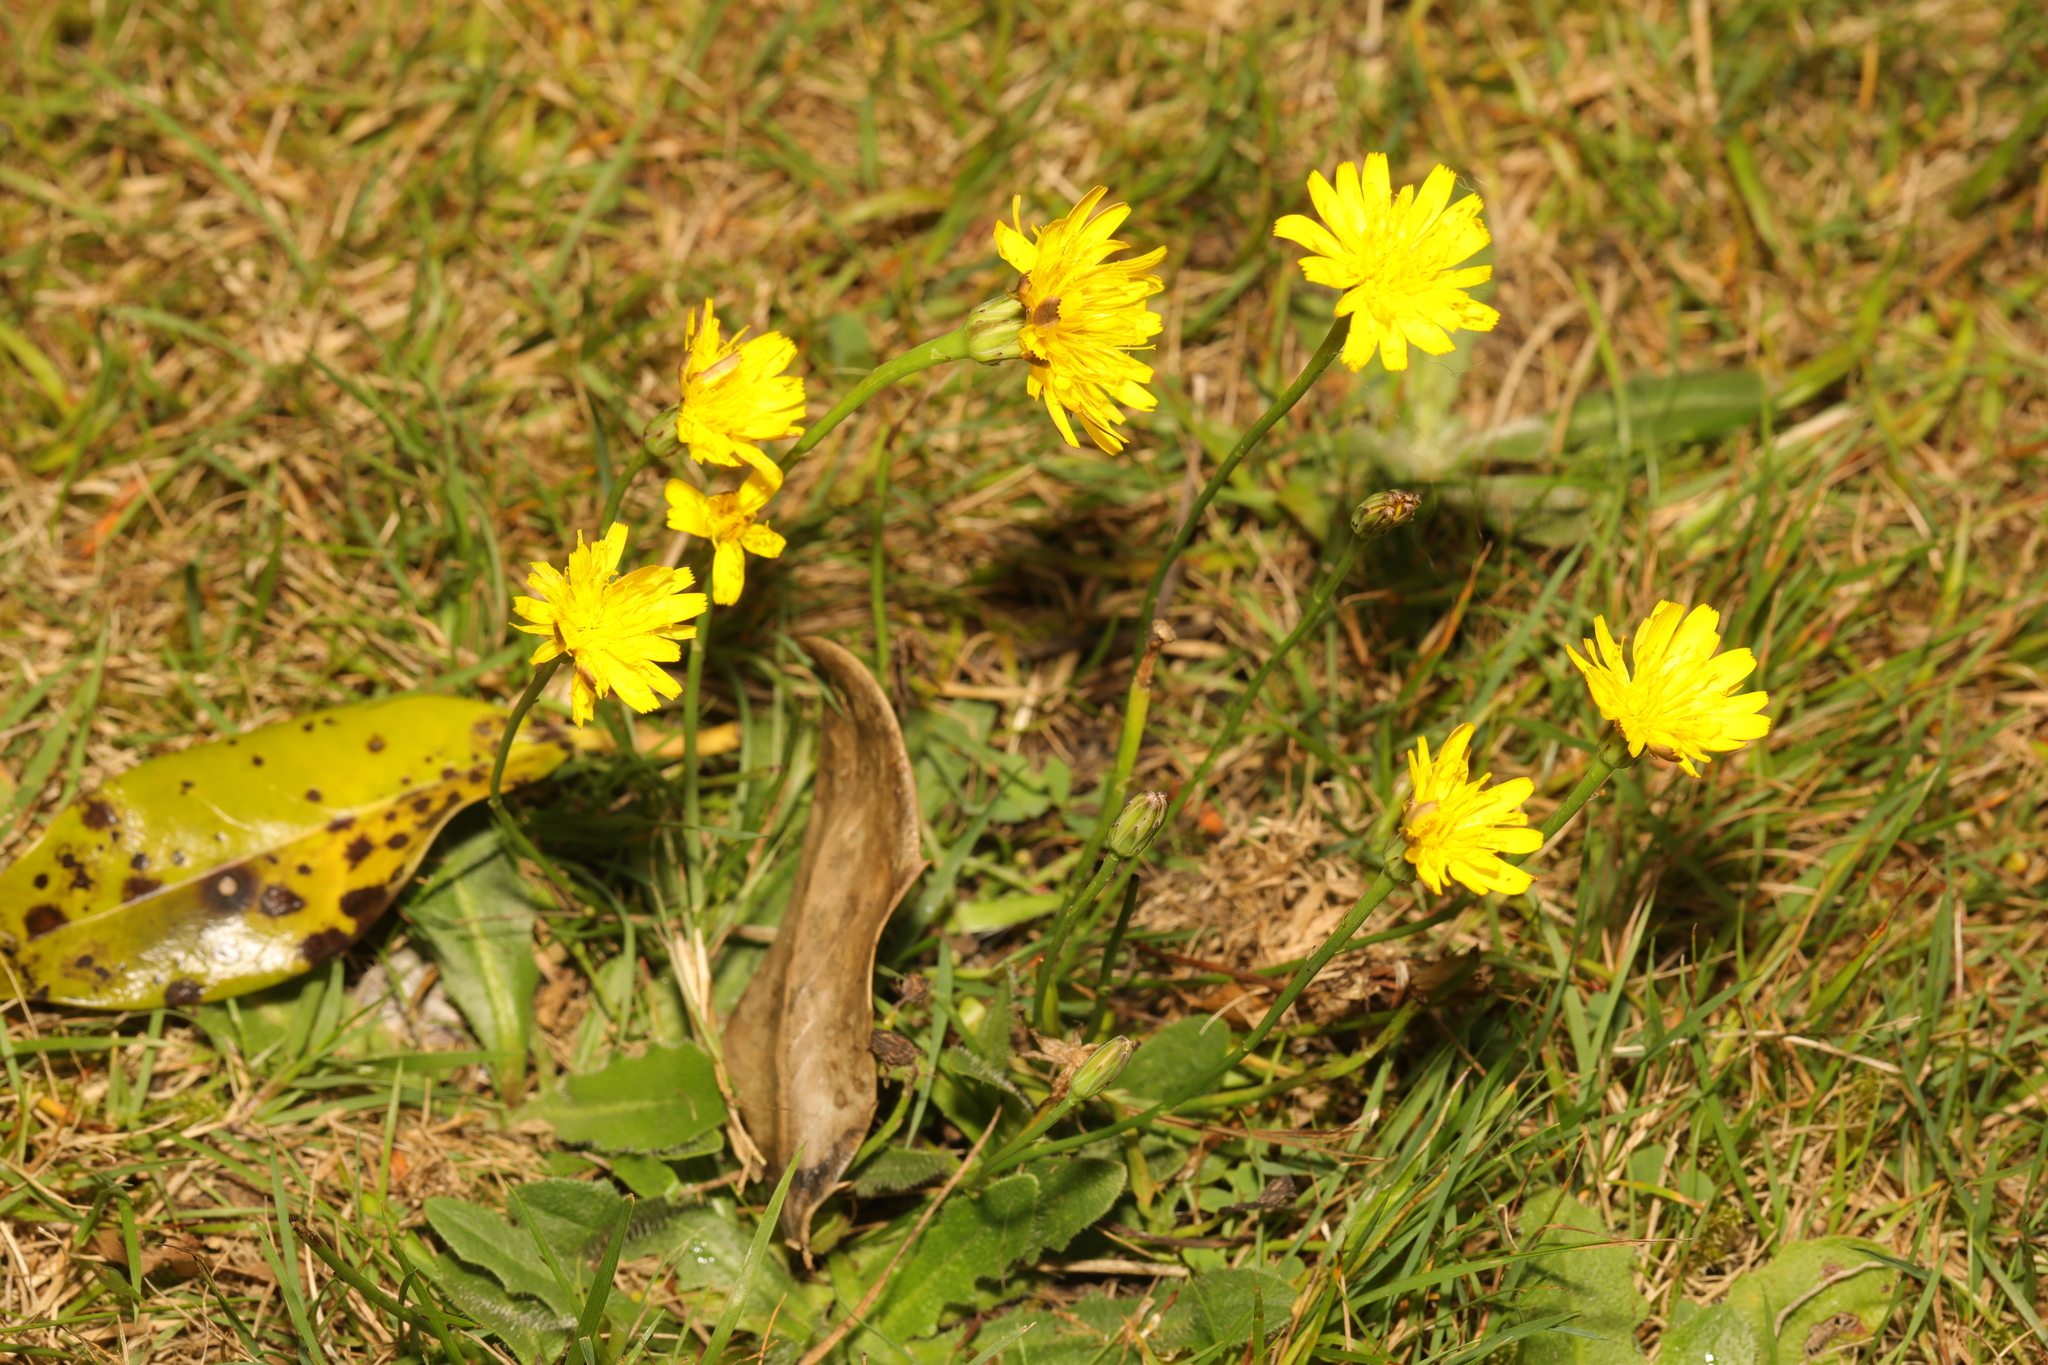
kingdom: Plantae
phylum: Tracheophyta
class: Magnoliopsida
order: Asterales
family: Asteraceae
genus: Hypochaeris
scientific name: Hypochaeris radicata
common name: Flatweed
